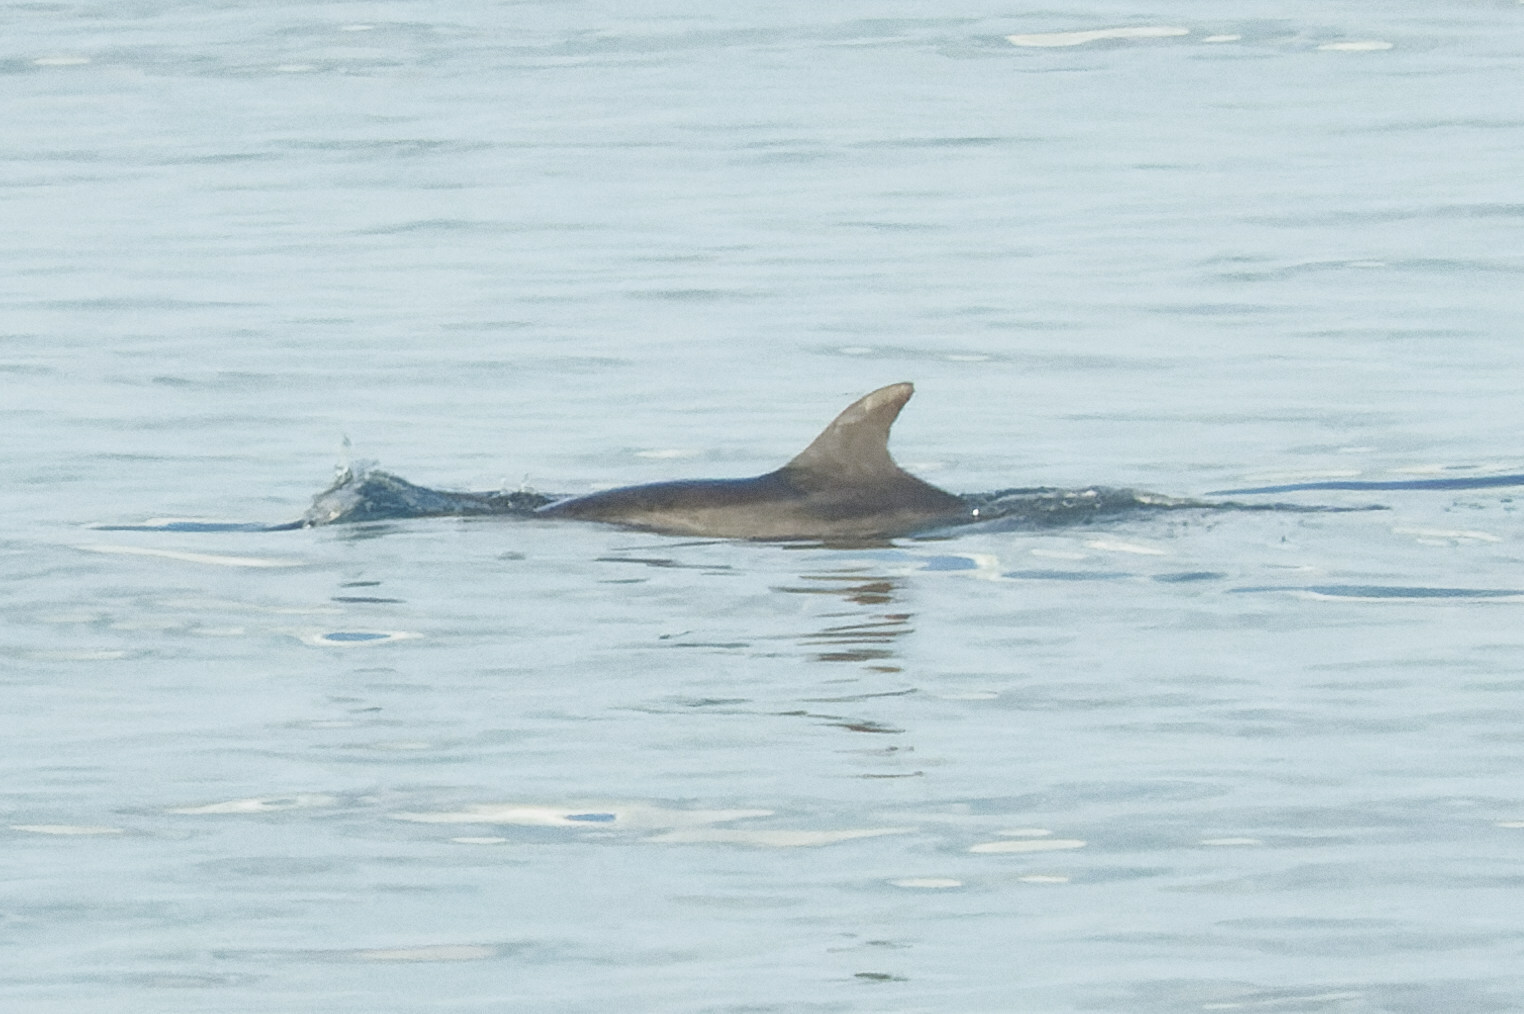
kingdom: Animalia
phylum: Chordata
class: Mammalia
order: Cetacea
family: Delphinidae
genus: Tursiops
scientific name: Tursiops truncatus
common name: Bottlenose dolphin
